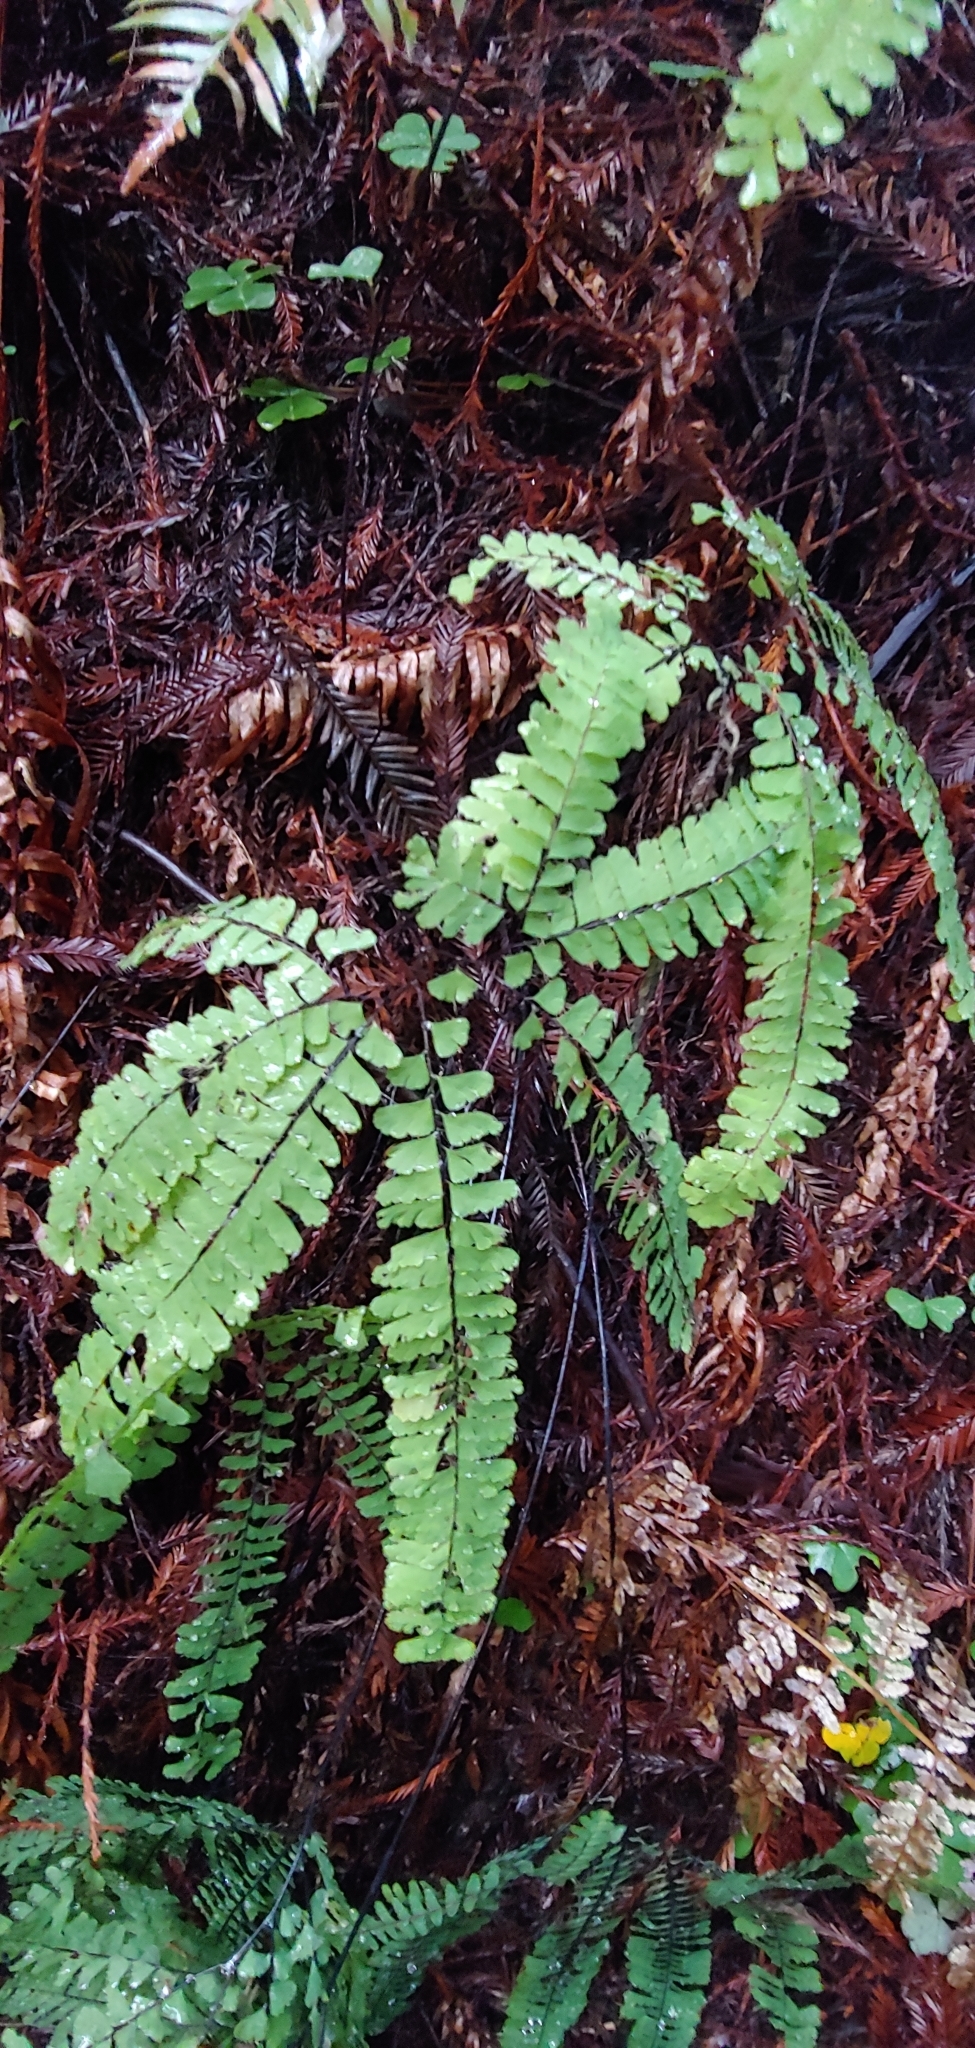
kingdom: Plantae
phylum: Tracheophyta
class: Polypodiopsida
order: Polypodiales
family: Pteridaceae
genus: Adiantum
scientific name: Adiantum aleuticum
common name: Aleutian maidenhair fern
